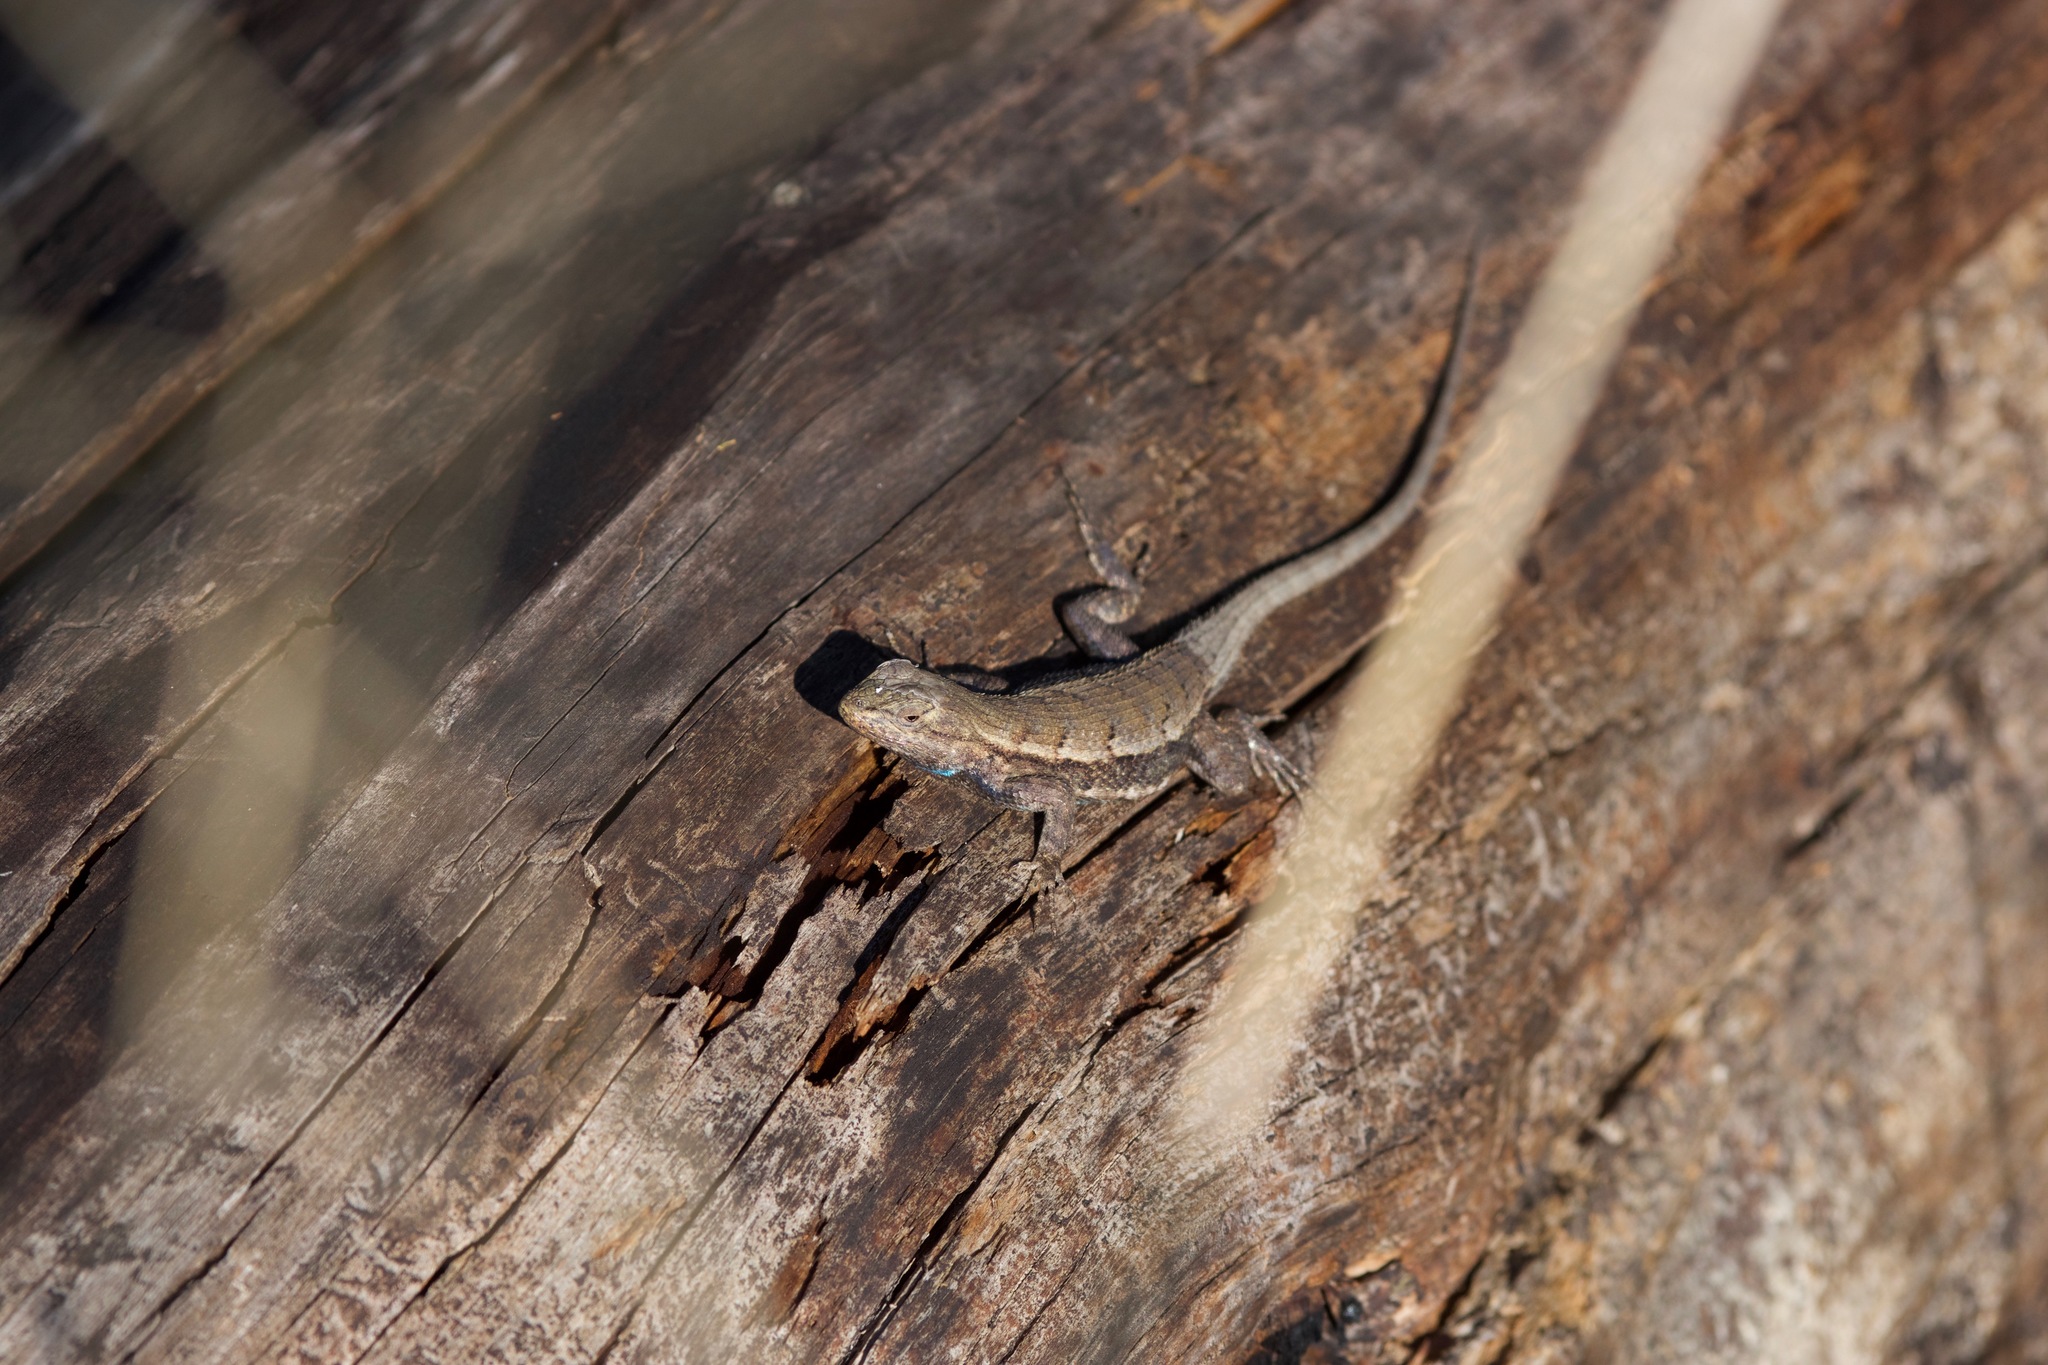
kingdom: Animalia
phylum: Chordata
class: Squamata
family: Phrynosomatidae
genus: Sceloporus
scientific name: Sceloporus consobrinus
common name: Southern prairie lizard
